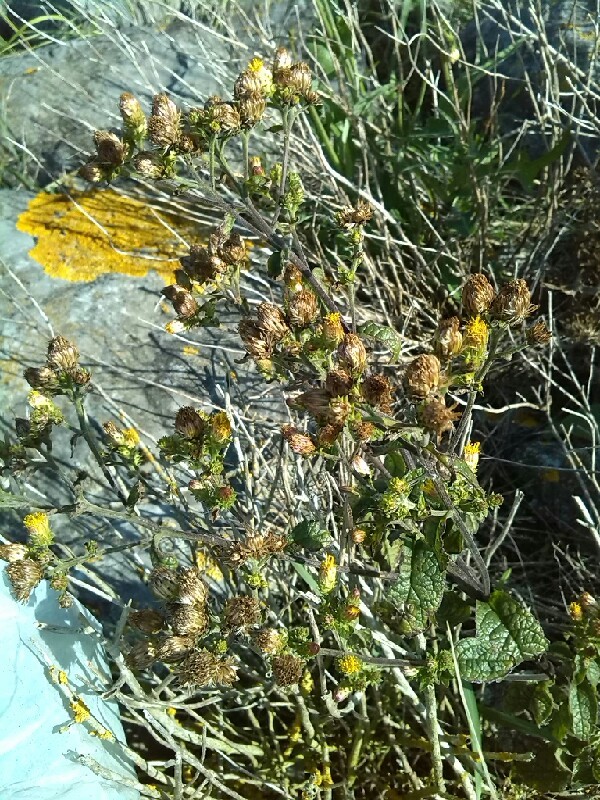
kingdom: Plantae
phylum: Tracheophyta
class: Magnoliopsida
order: Asterales
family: Asteraceae
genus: Pentanema
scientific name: Pentanema squarrosum
